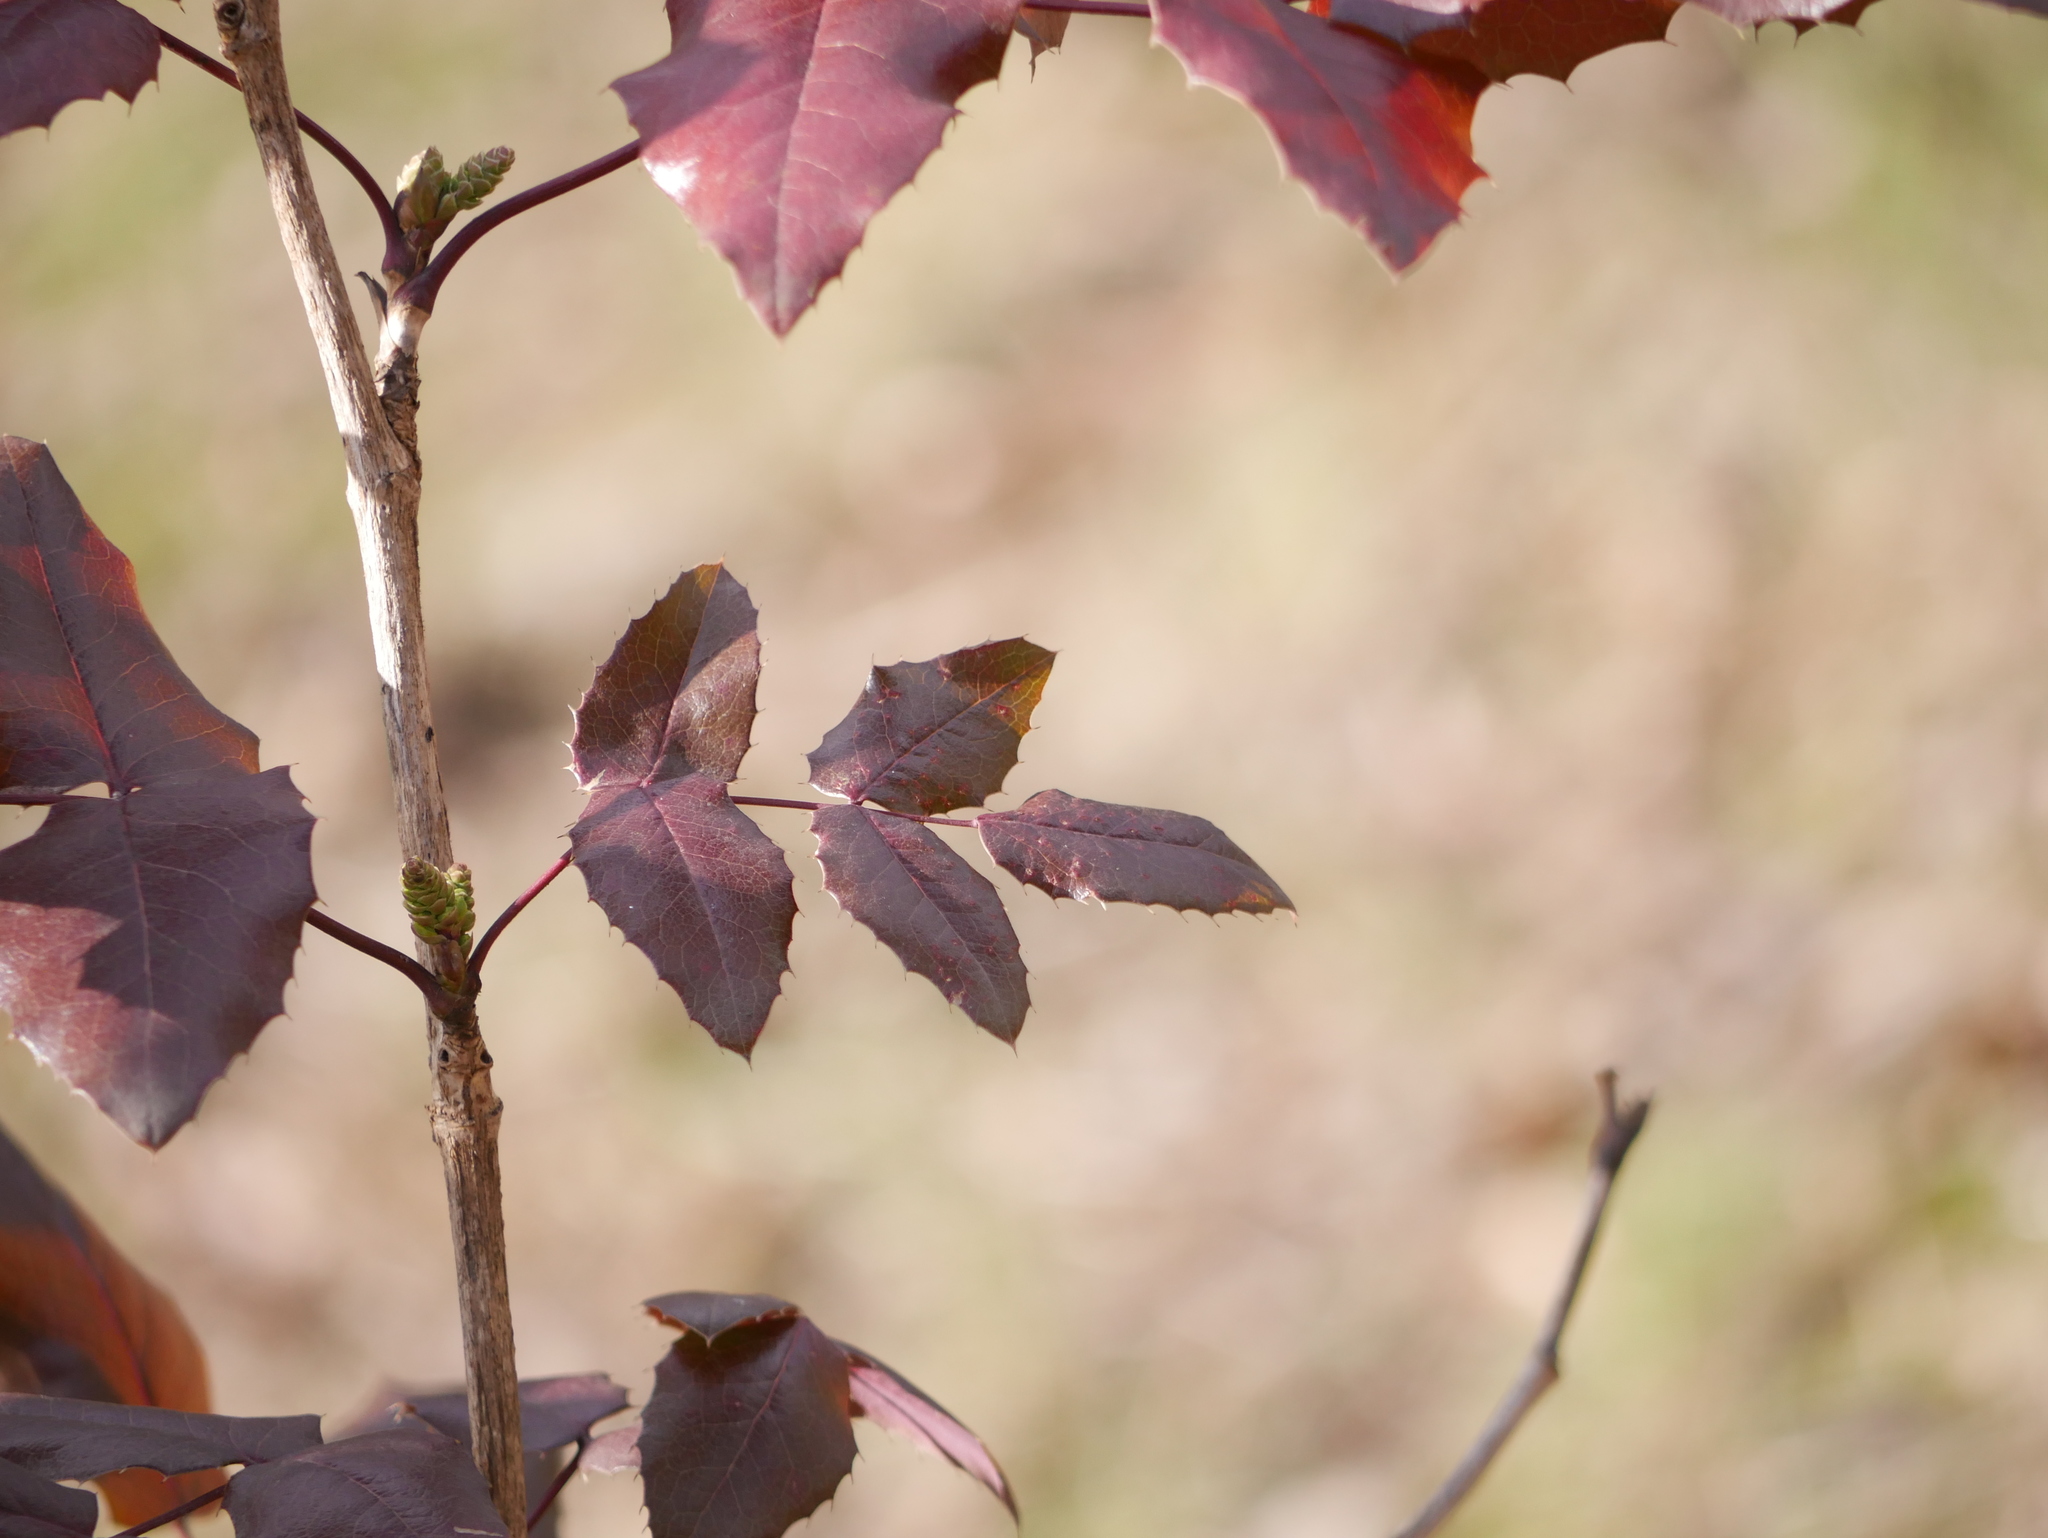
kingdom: Plantae
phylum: Tracheophyta
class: Magnoliopsida
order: Ranunculales
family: Berberidaceae
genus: Mahonia
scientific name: Mahonia aquifolium
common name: Oregon-grape
